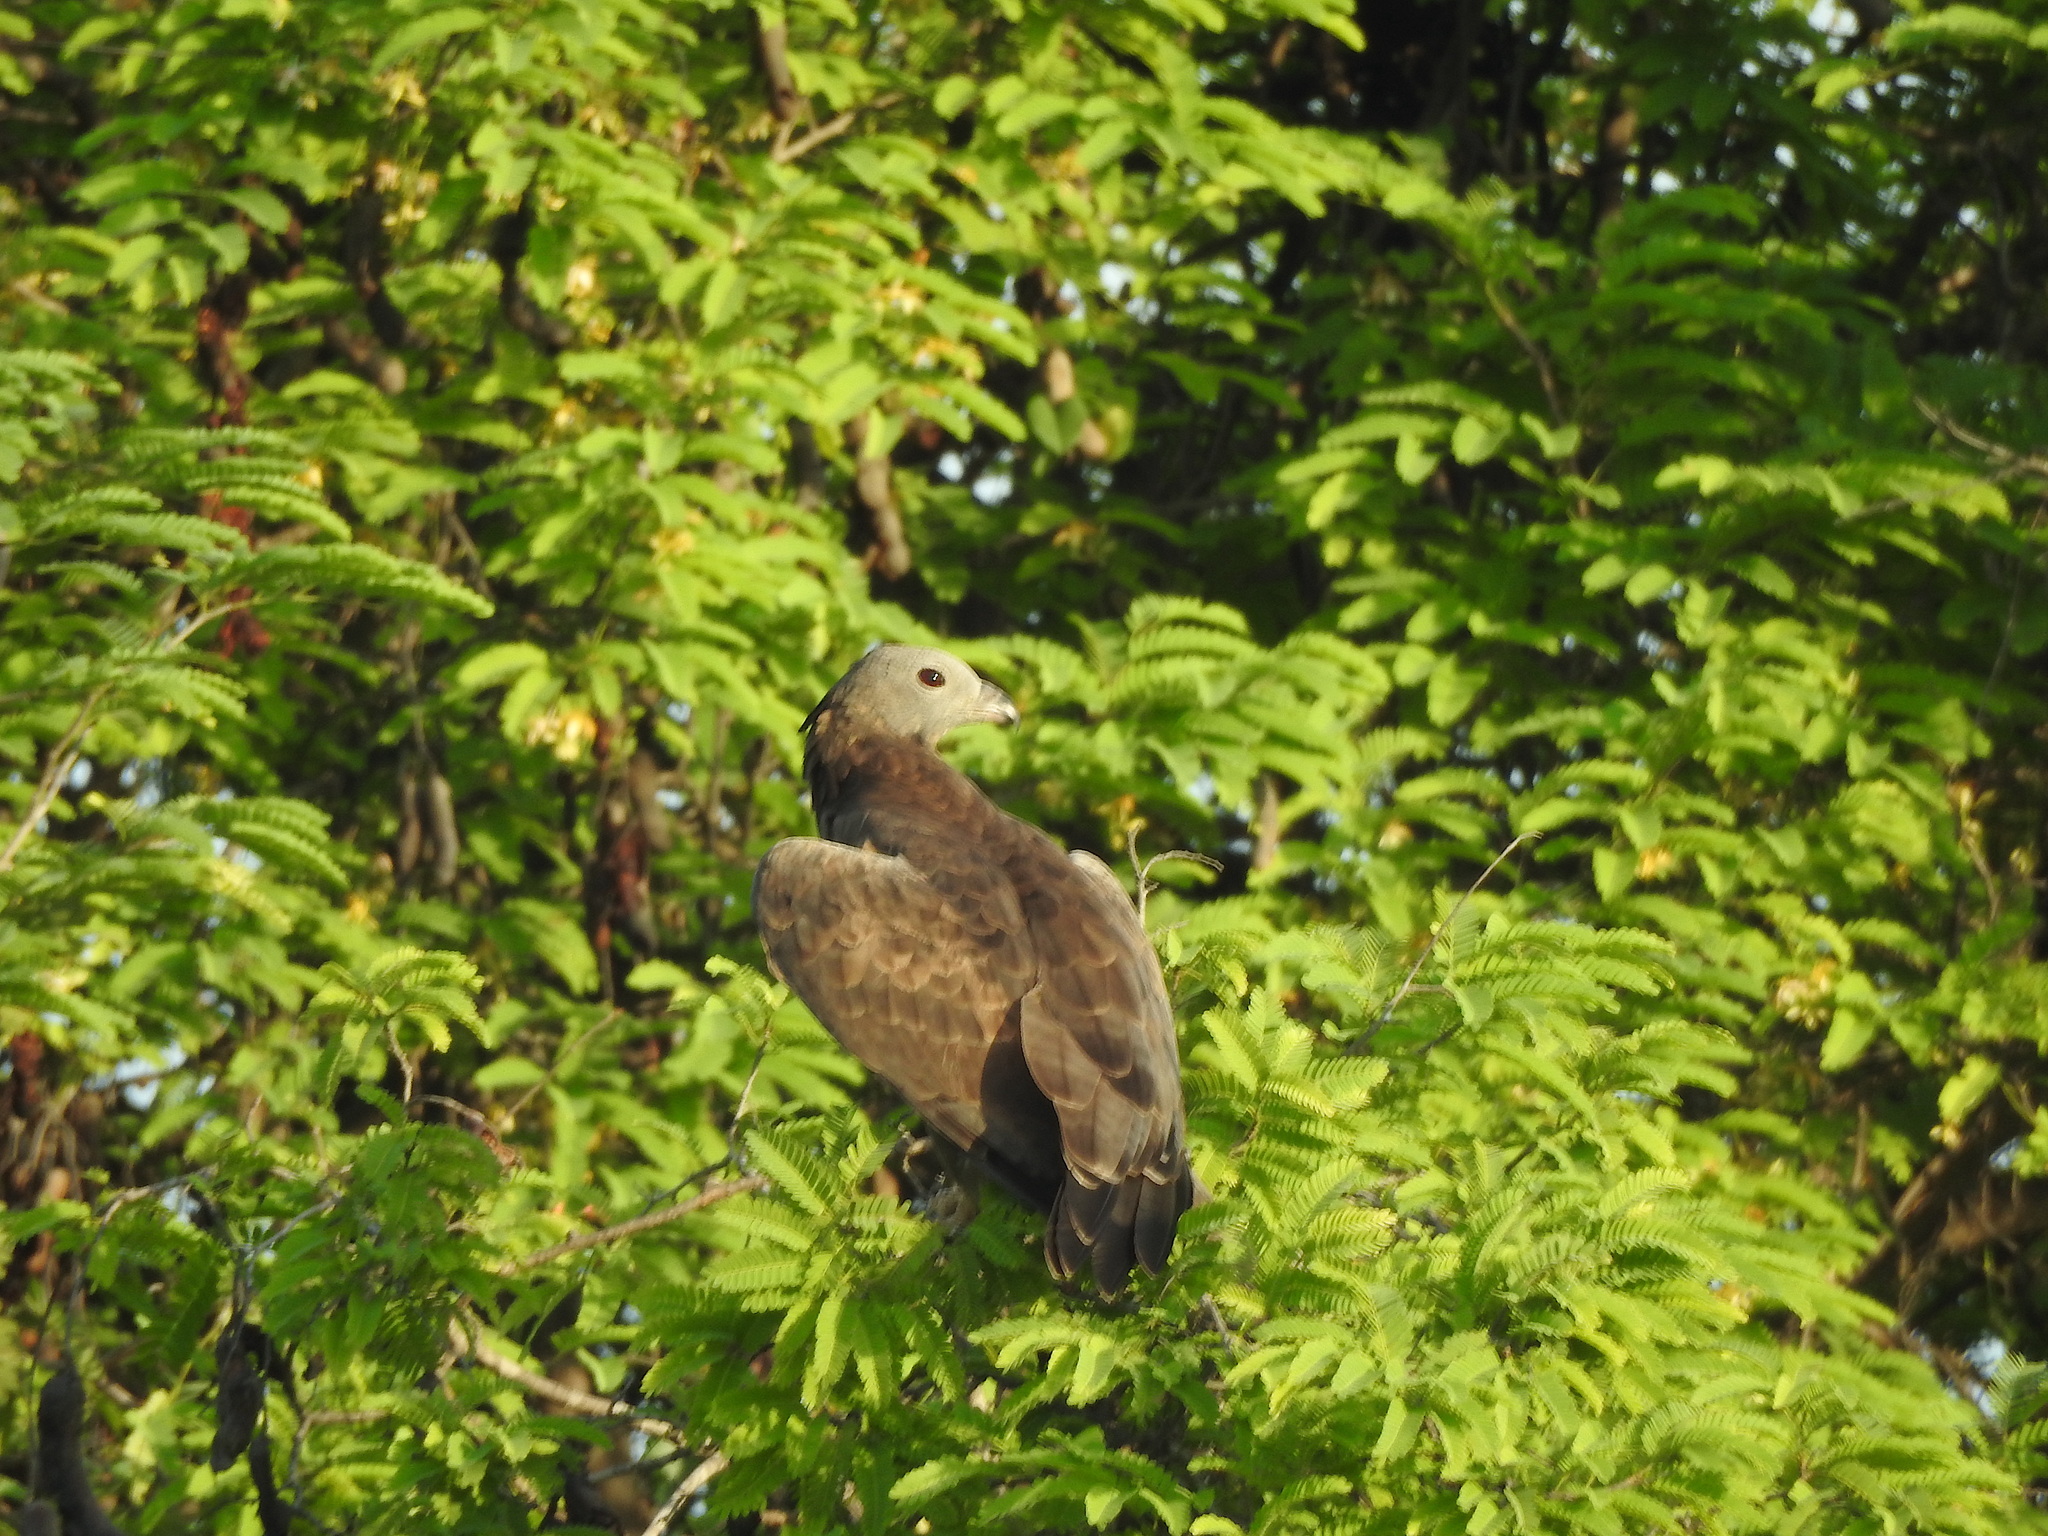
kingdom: Animalia
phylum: Chordata
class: Aves
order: Accipitriformes
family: Accipitridae
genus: Pernis
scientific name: Pernis ptilorhynchus
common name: Crested honey buzzard
